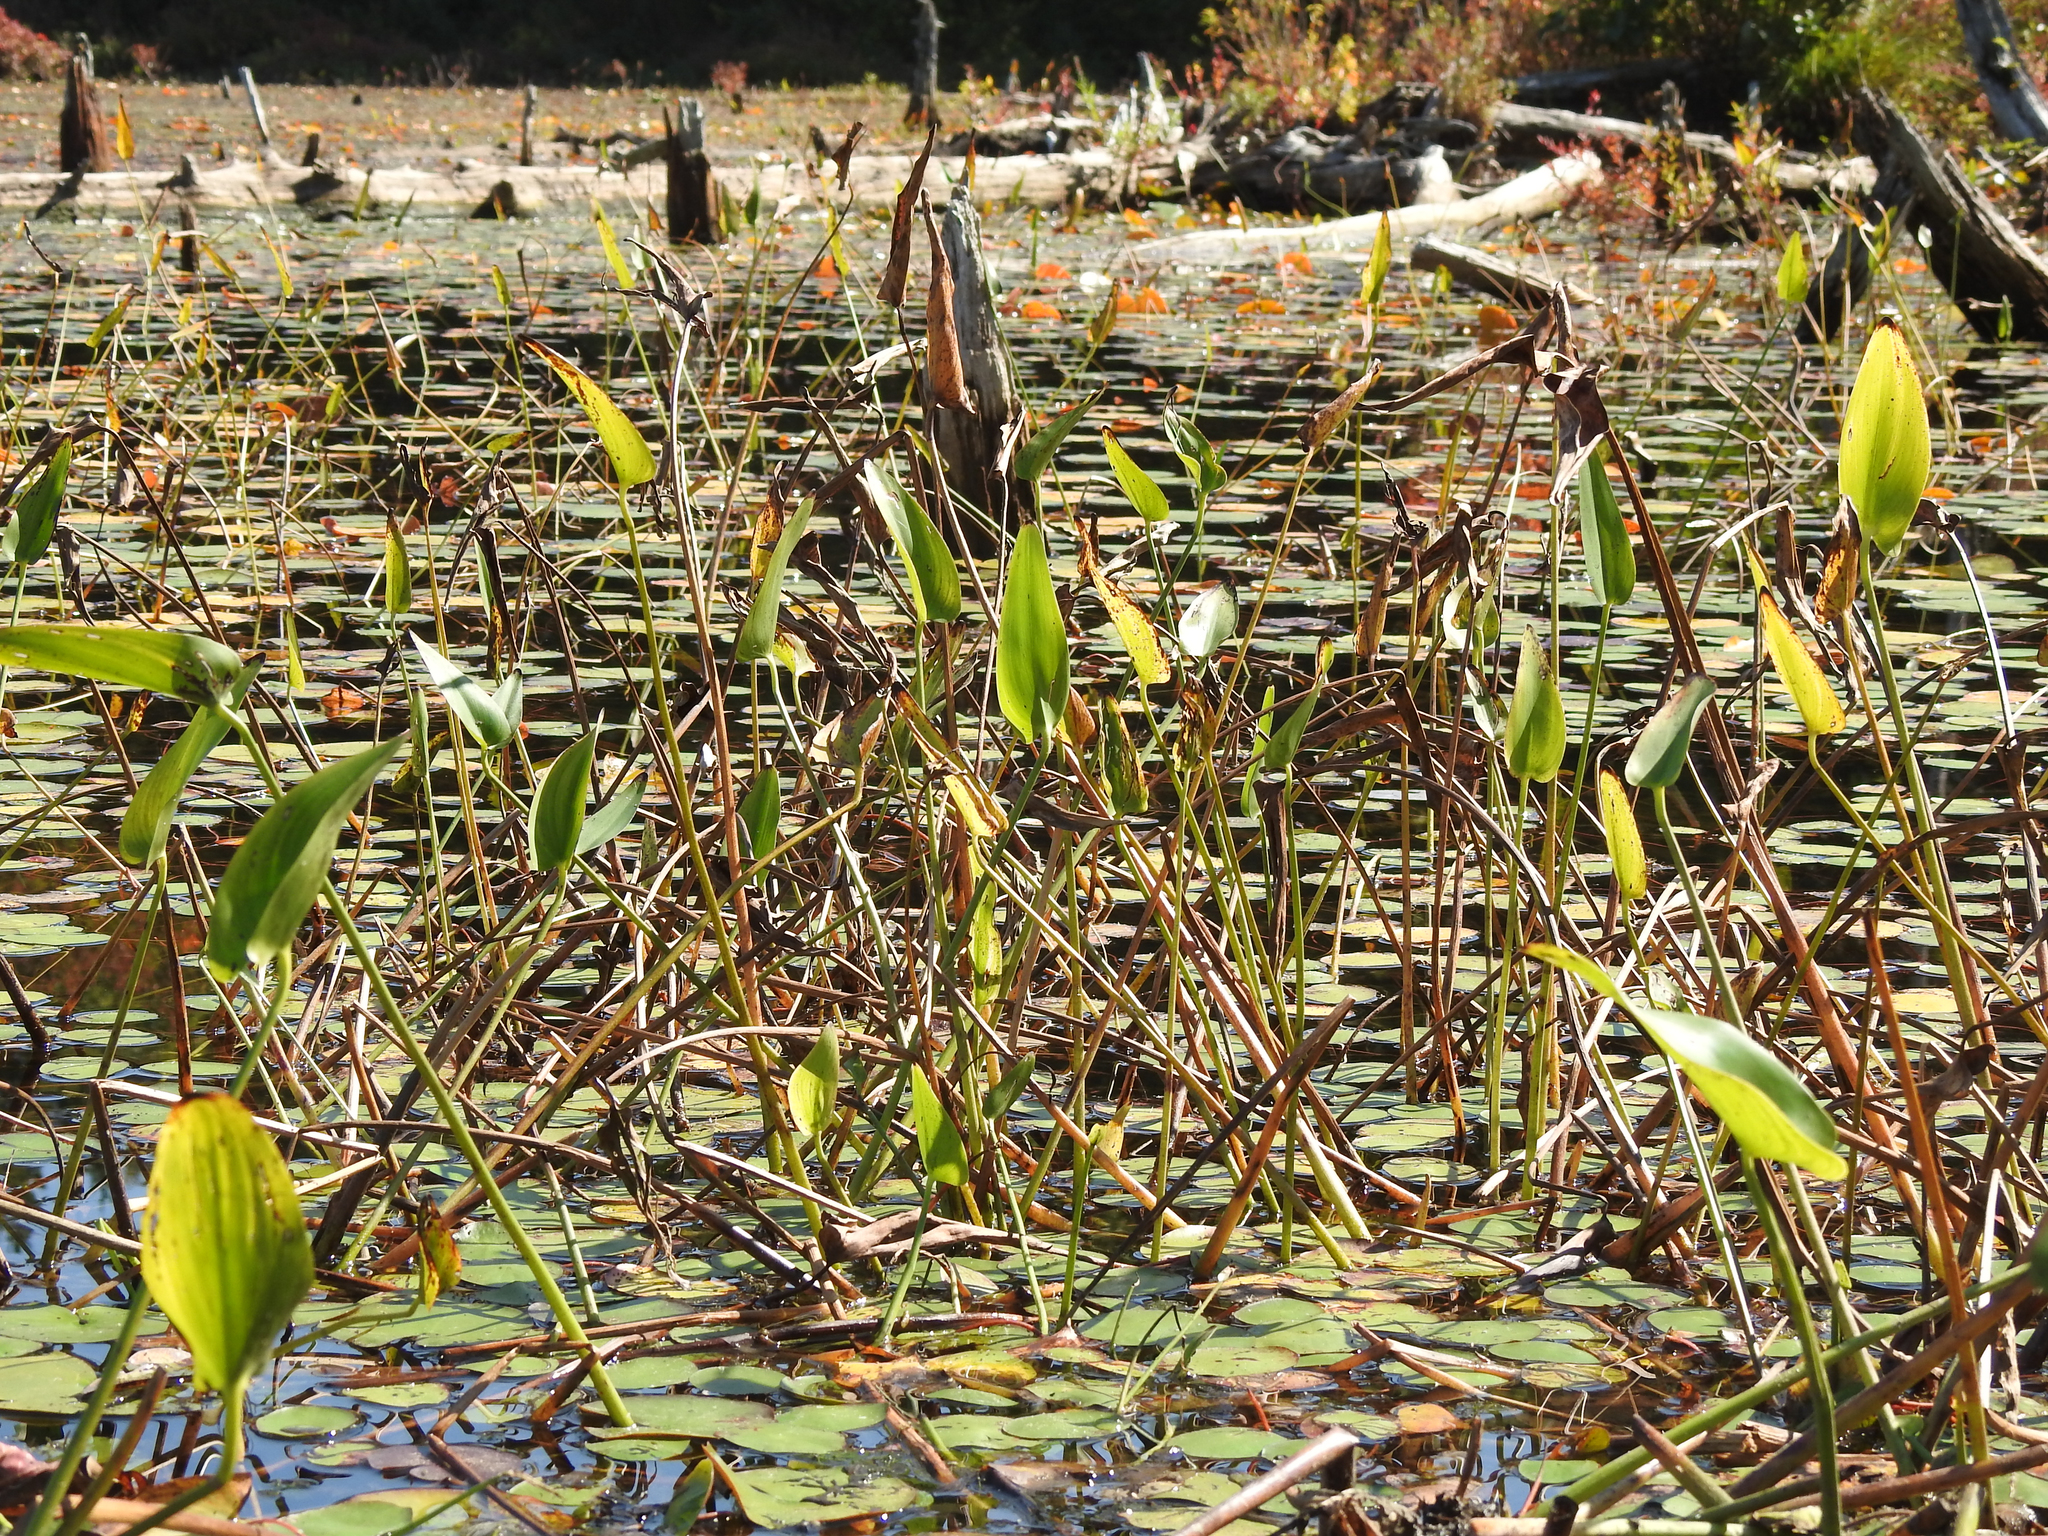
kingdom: Plantae
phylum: Tracheophyta
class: Liliopsida
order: Commelinales
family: Pontederiaceae
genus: Pontederia
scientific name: Pontederia cordata
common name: Pickerelweed
